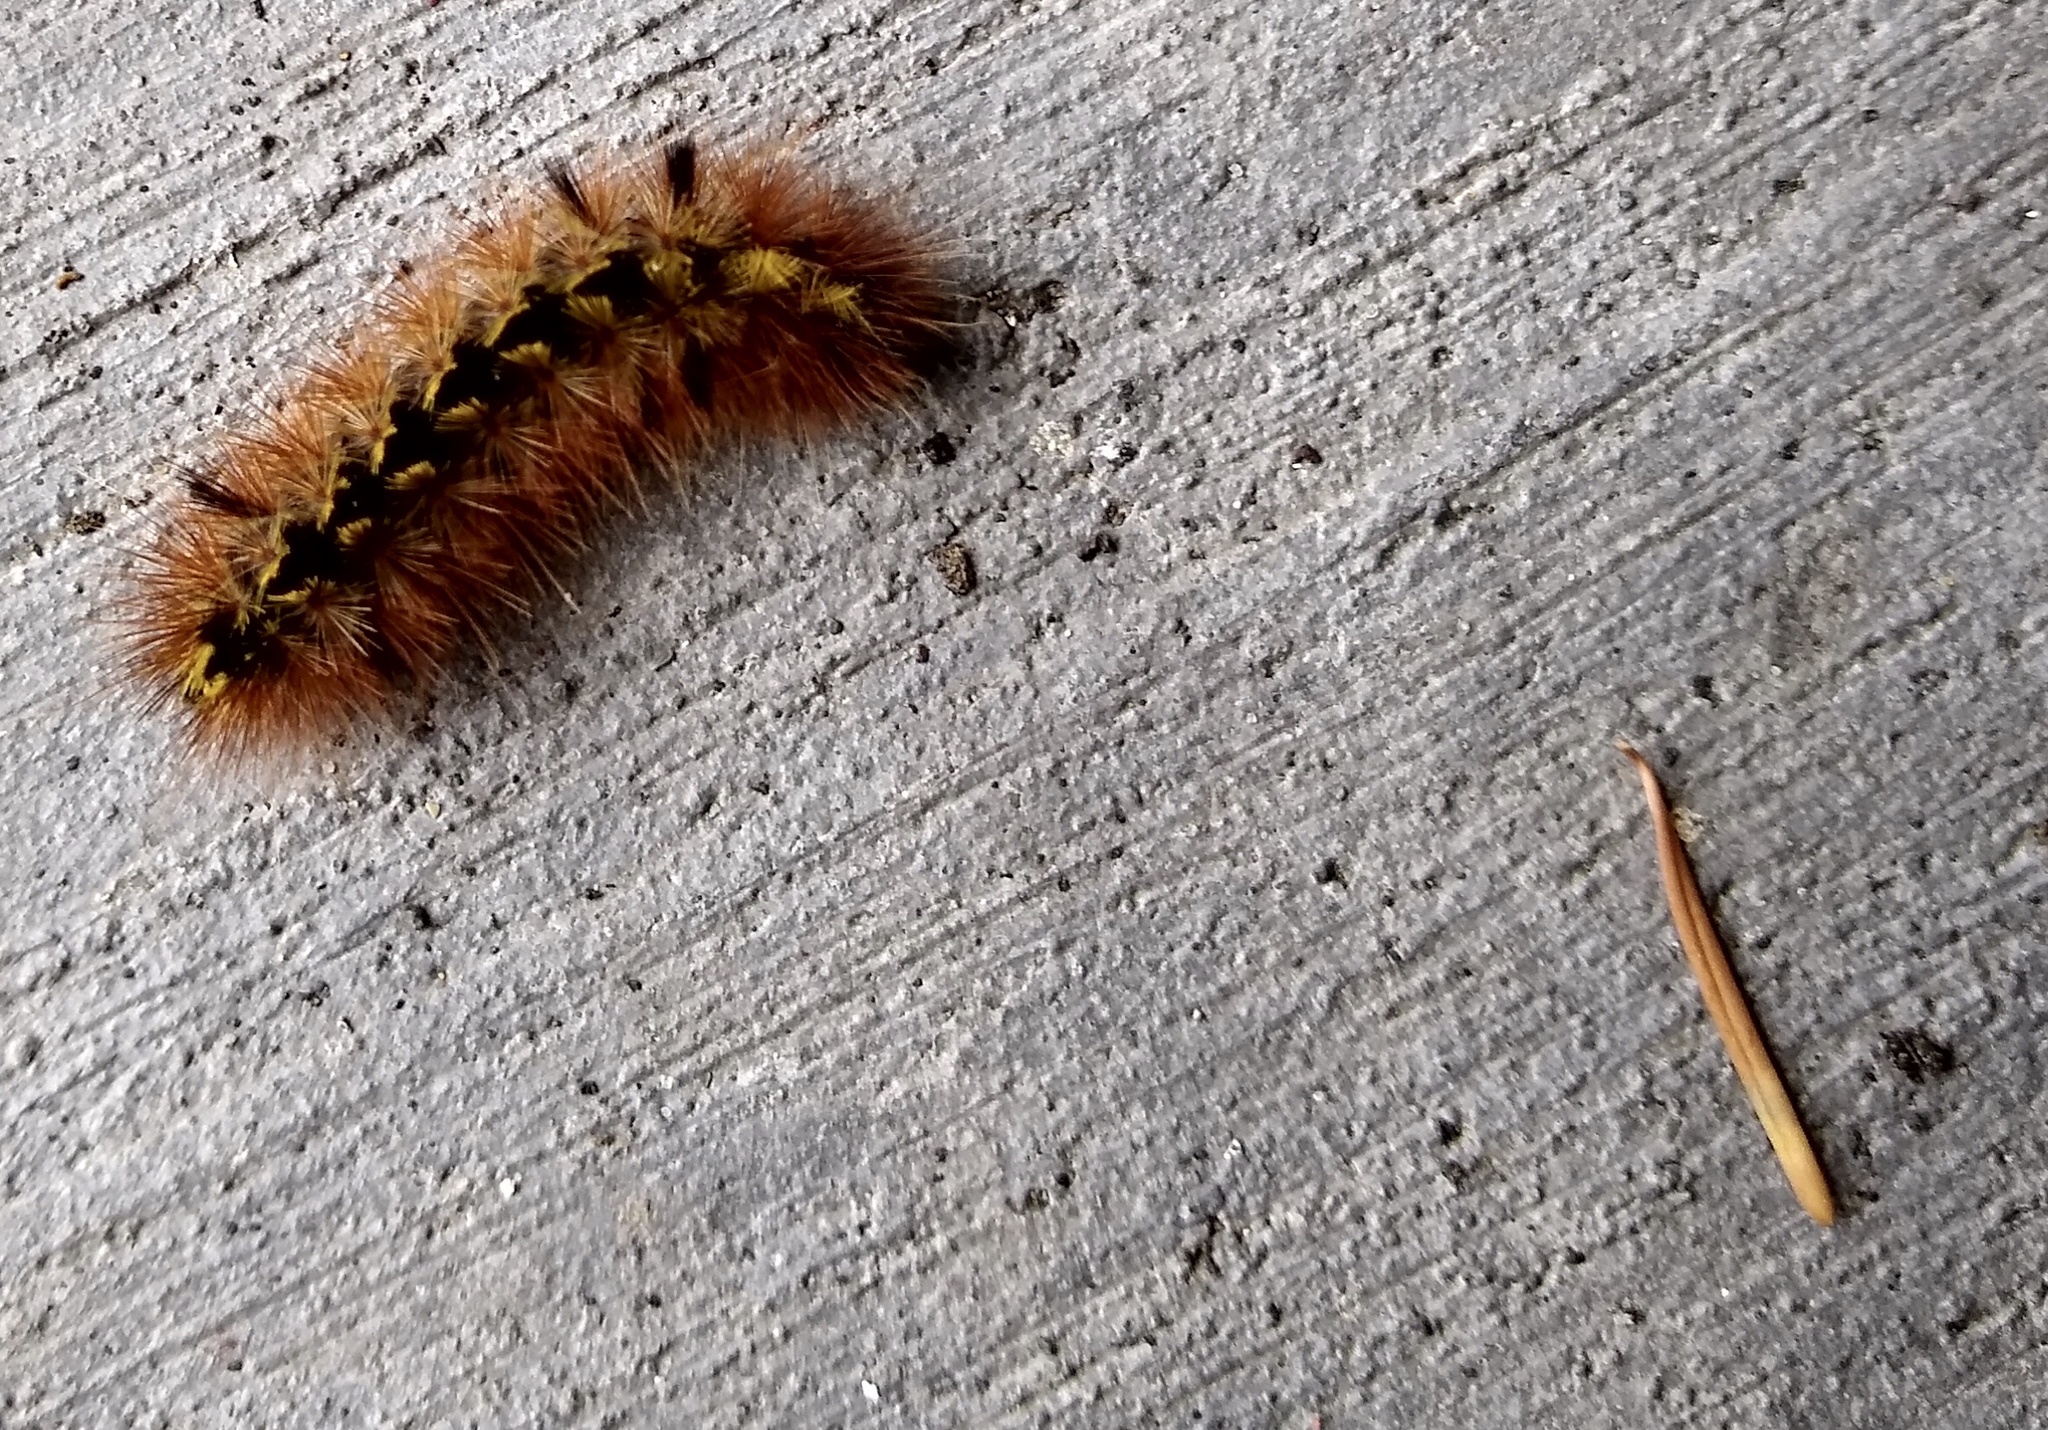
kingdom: Animalia
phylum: Arthropoda
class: Insecta
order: Lepidoptera
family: Erebidae
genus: Lophocampa
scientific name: Lophocampa argentata
